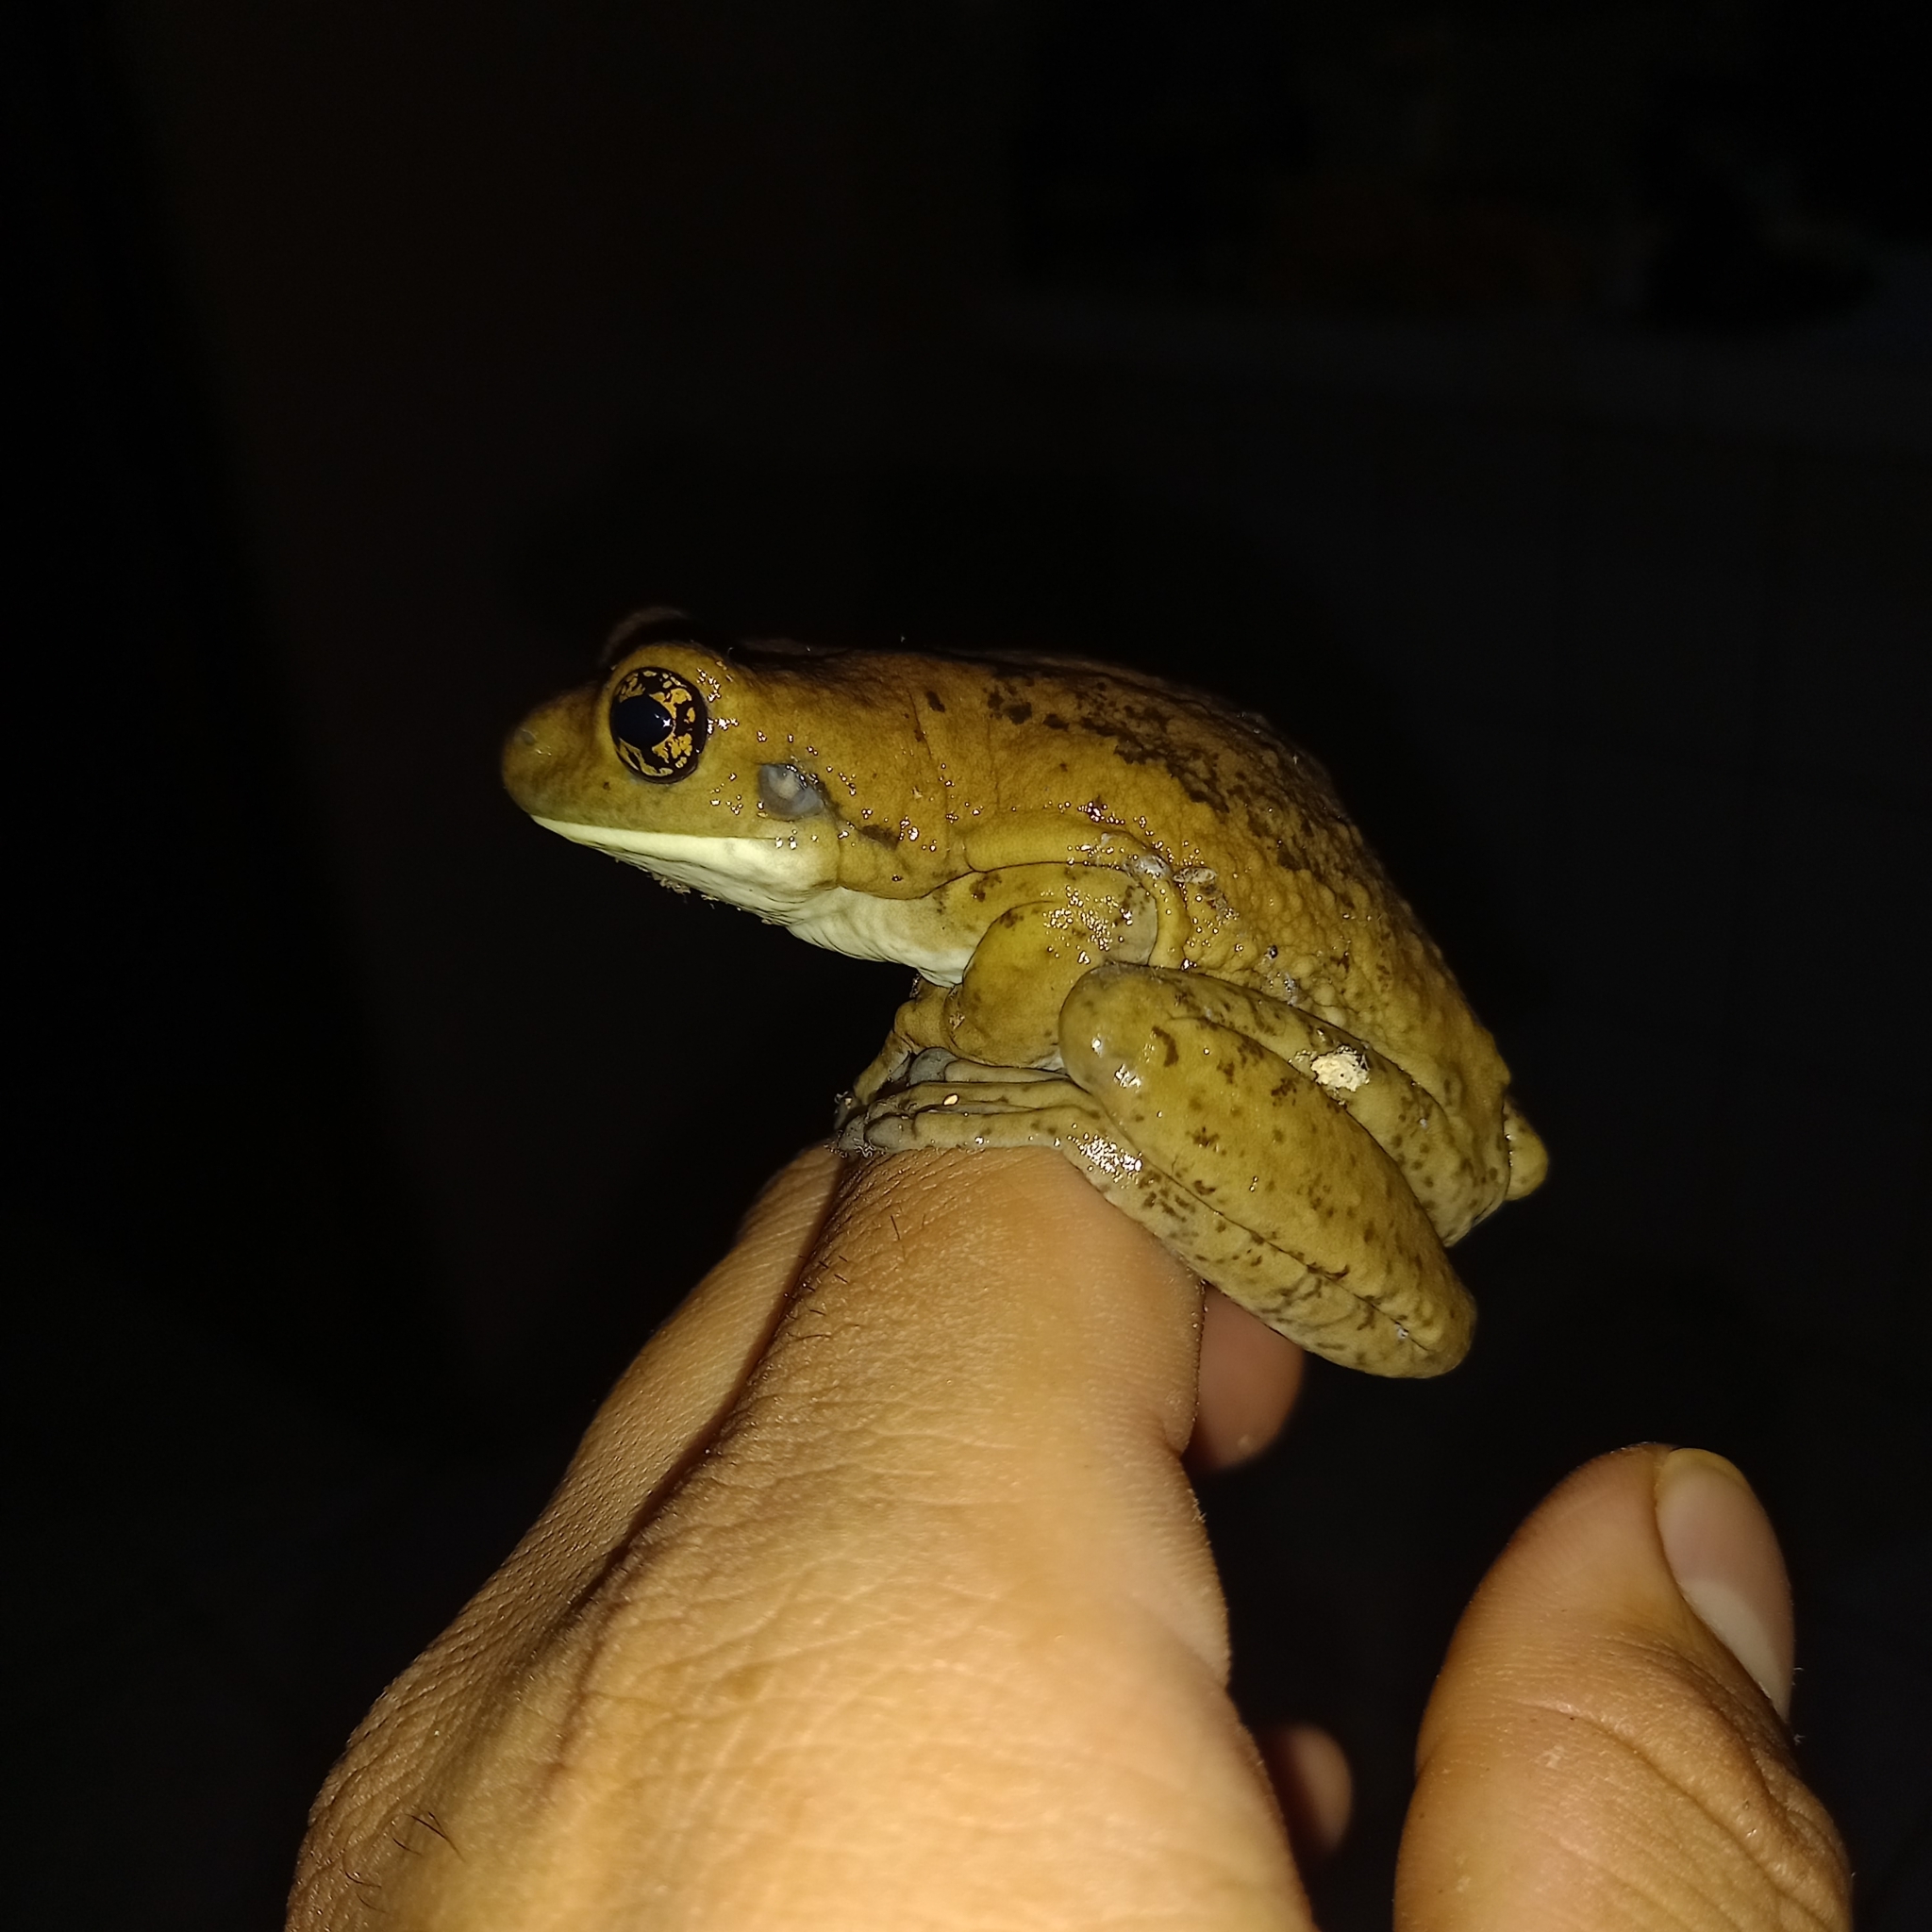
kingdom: Animalia
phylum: Chordata
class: Amphibia
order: Anura
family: Hylidae
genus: Trachycephalus
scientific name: Trachycephalus vermiculatus
